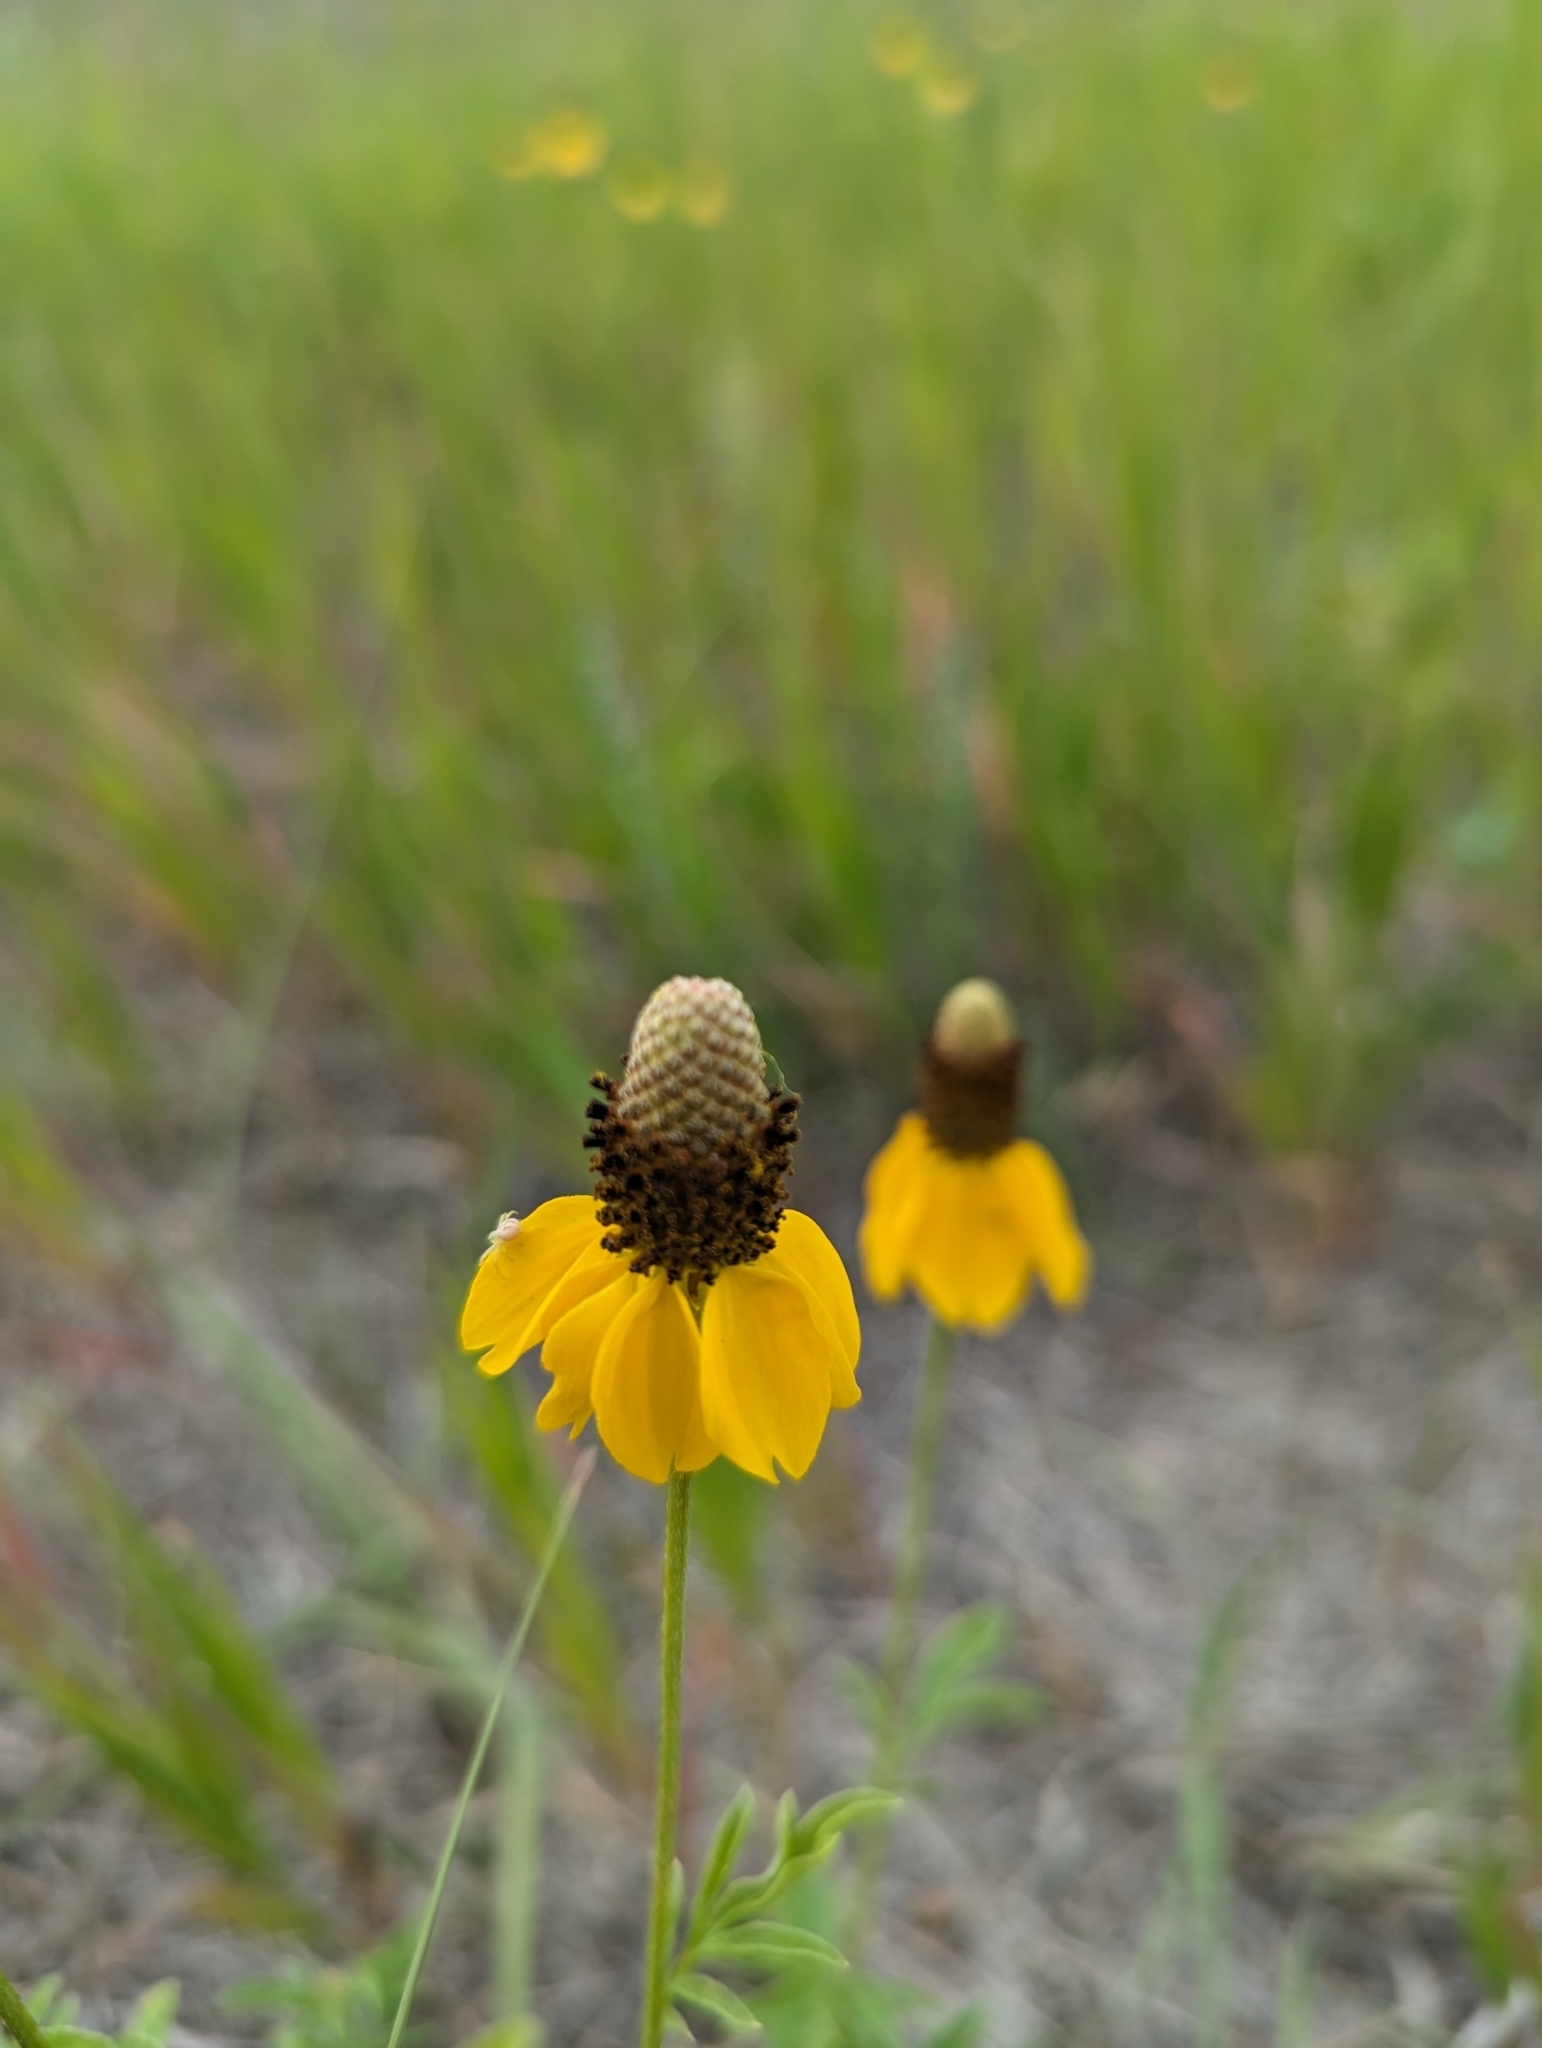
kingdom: Plantae
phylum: Tracheophyta
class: Magnoliopsida
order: Asterales
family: Asteraceae
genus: Ratibida
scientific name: Ratibida columnifera
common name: Prairie coneflower
